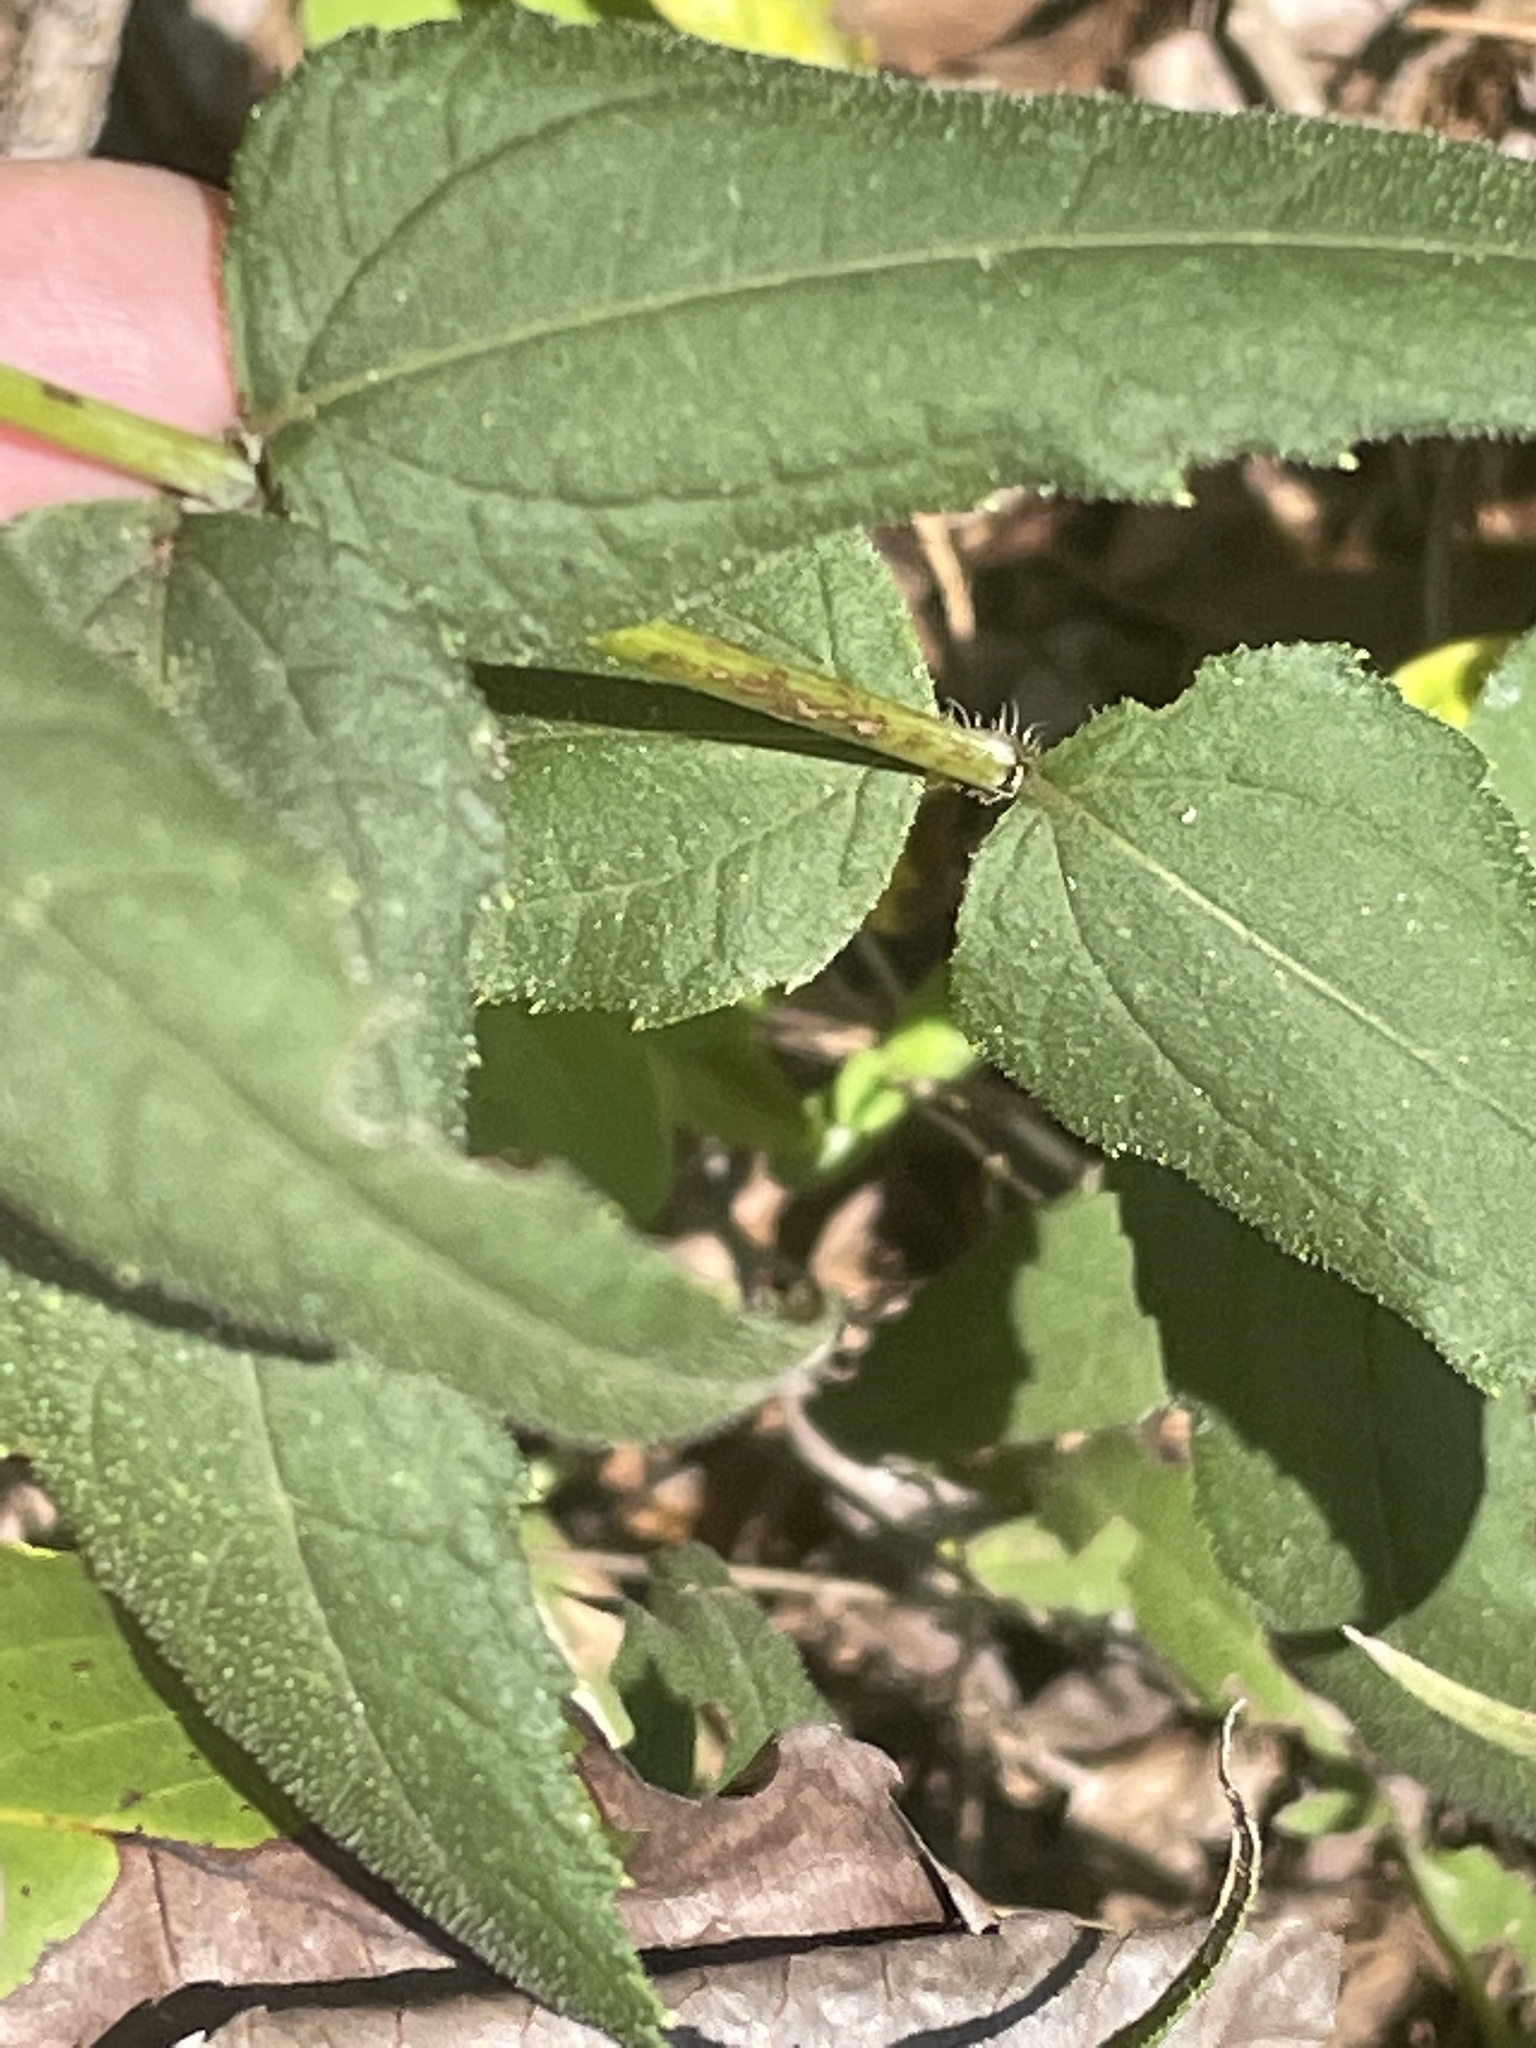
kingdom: Plantae
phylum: Tracheophyta
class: Magnoliopsida
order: Asterales
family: Asteraceae
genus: Helianthus
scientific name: Helianthus divaricatus
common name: Divergent sunflower
